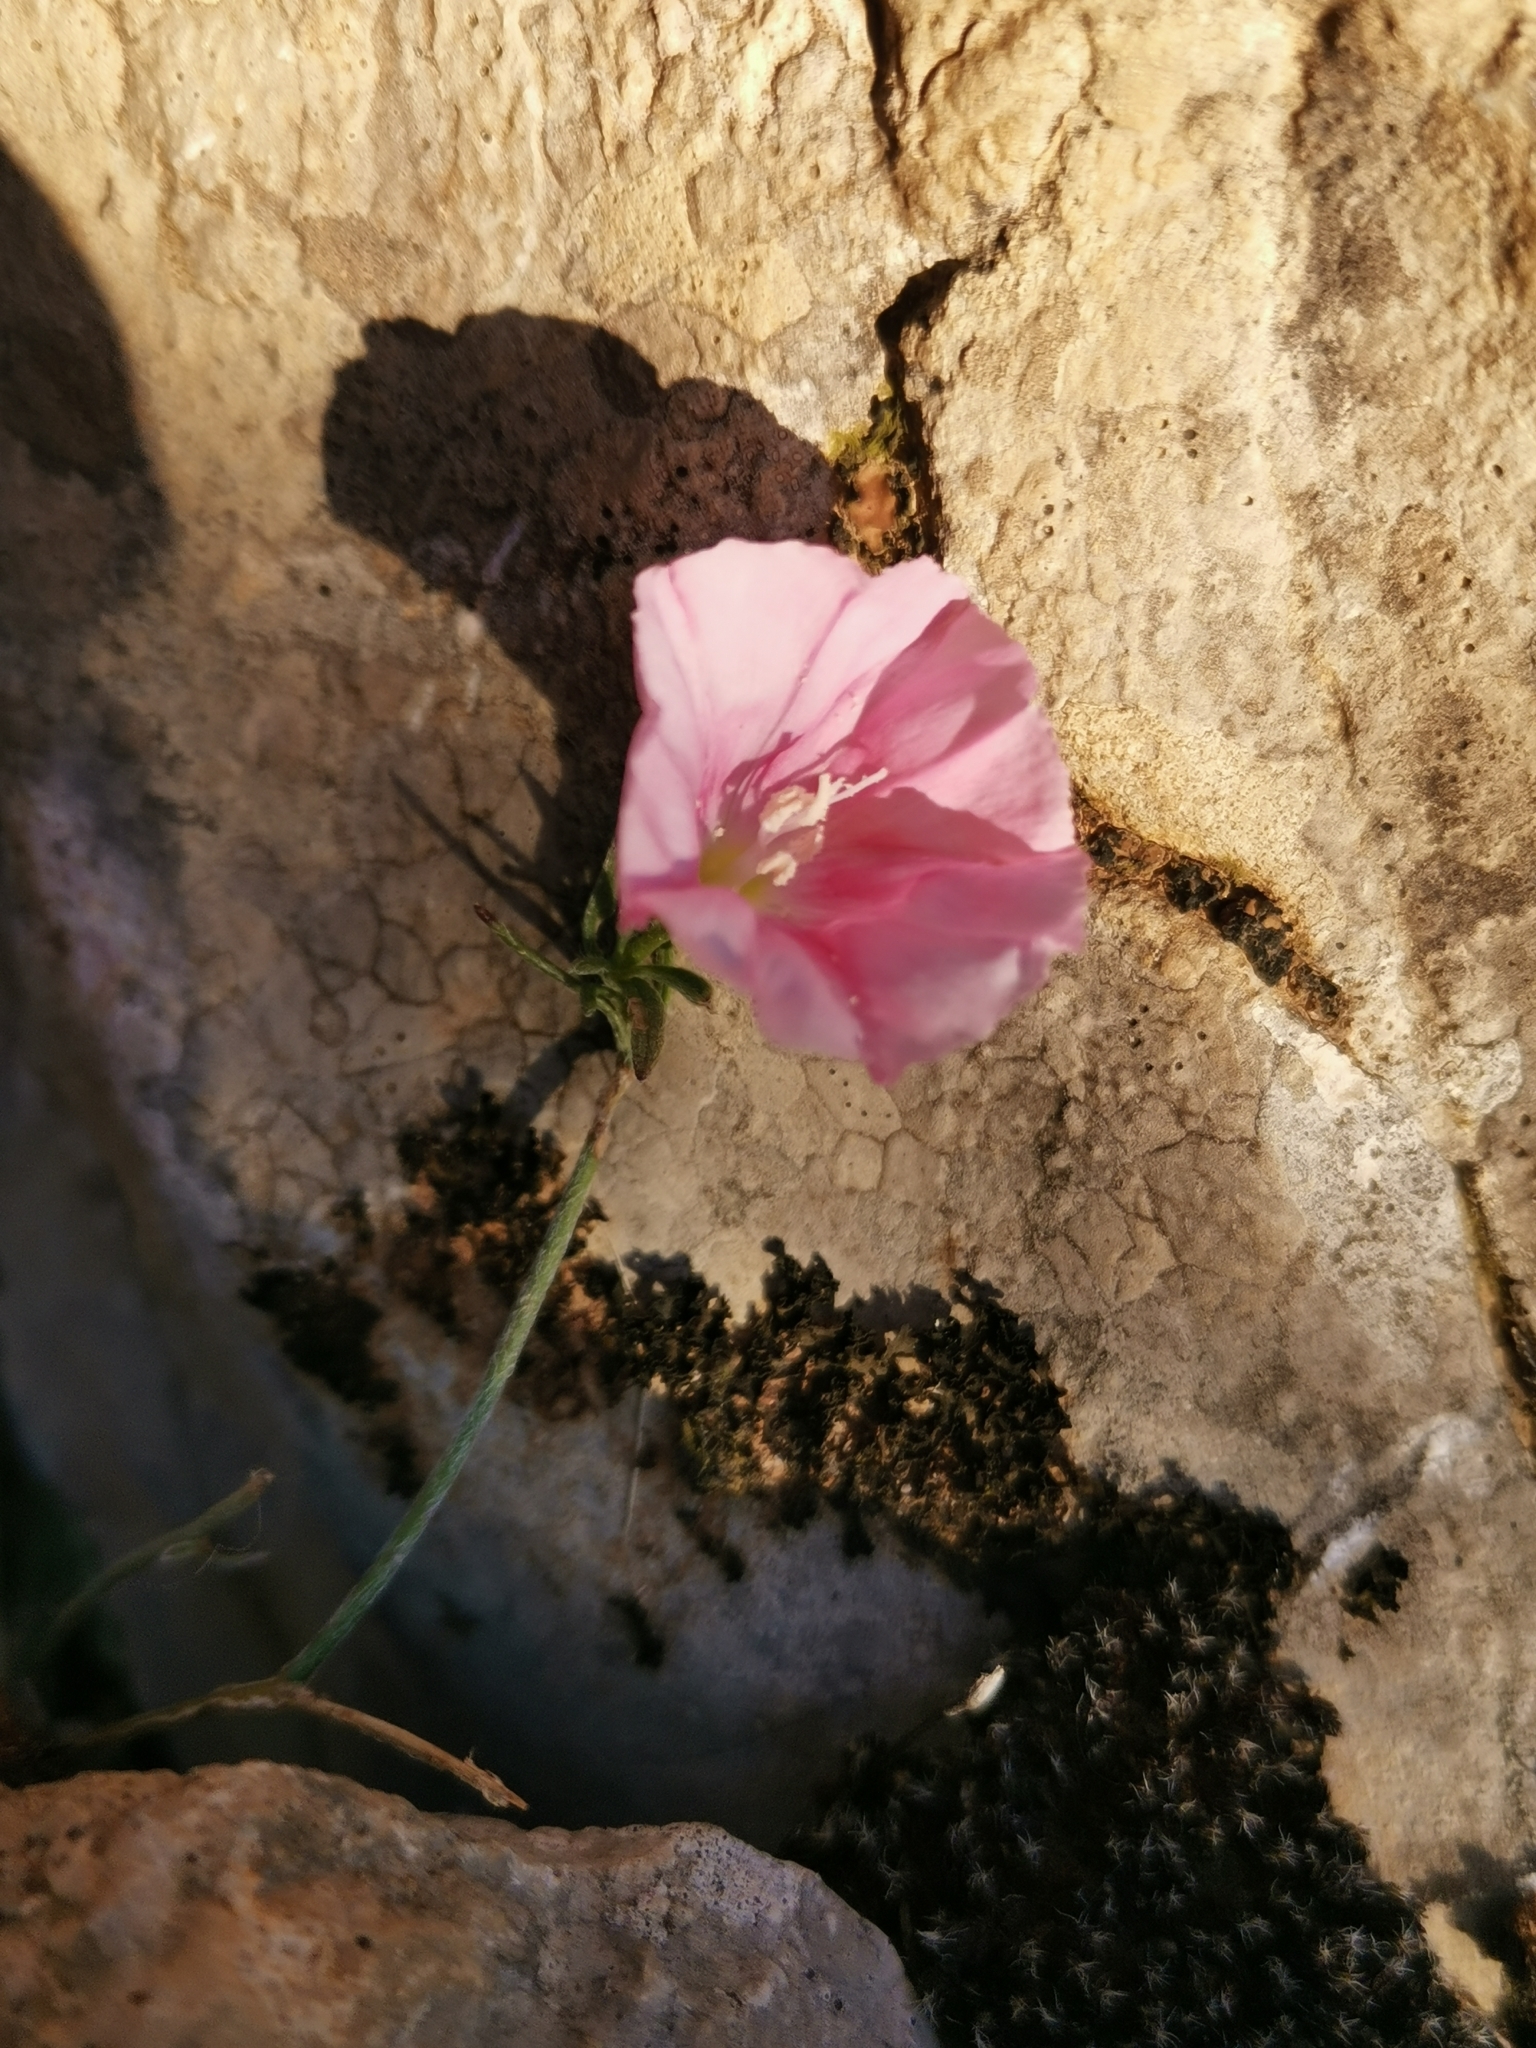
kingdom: Plantae
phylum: Tracheophyta
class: Magnoliopsida
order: Solanales
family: Convolvulaceae
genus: Convolvulus
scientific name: Convolvulus cantabrica
